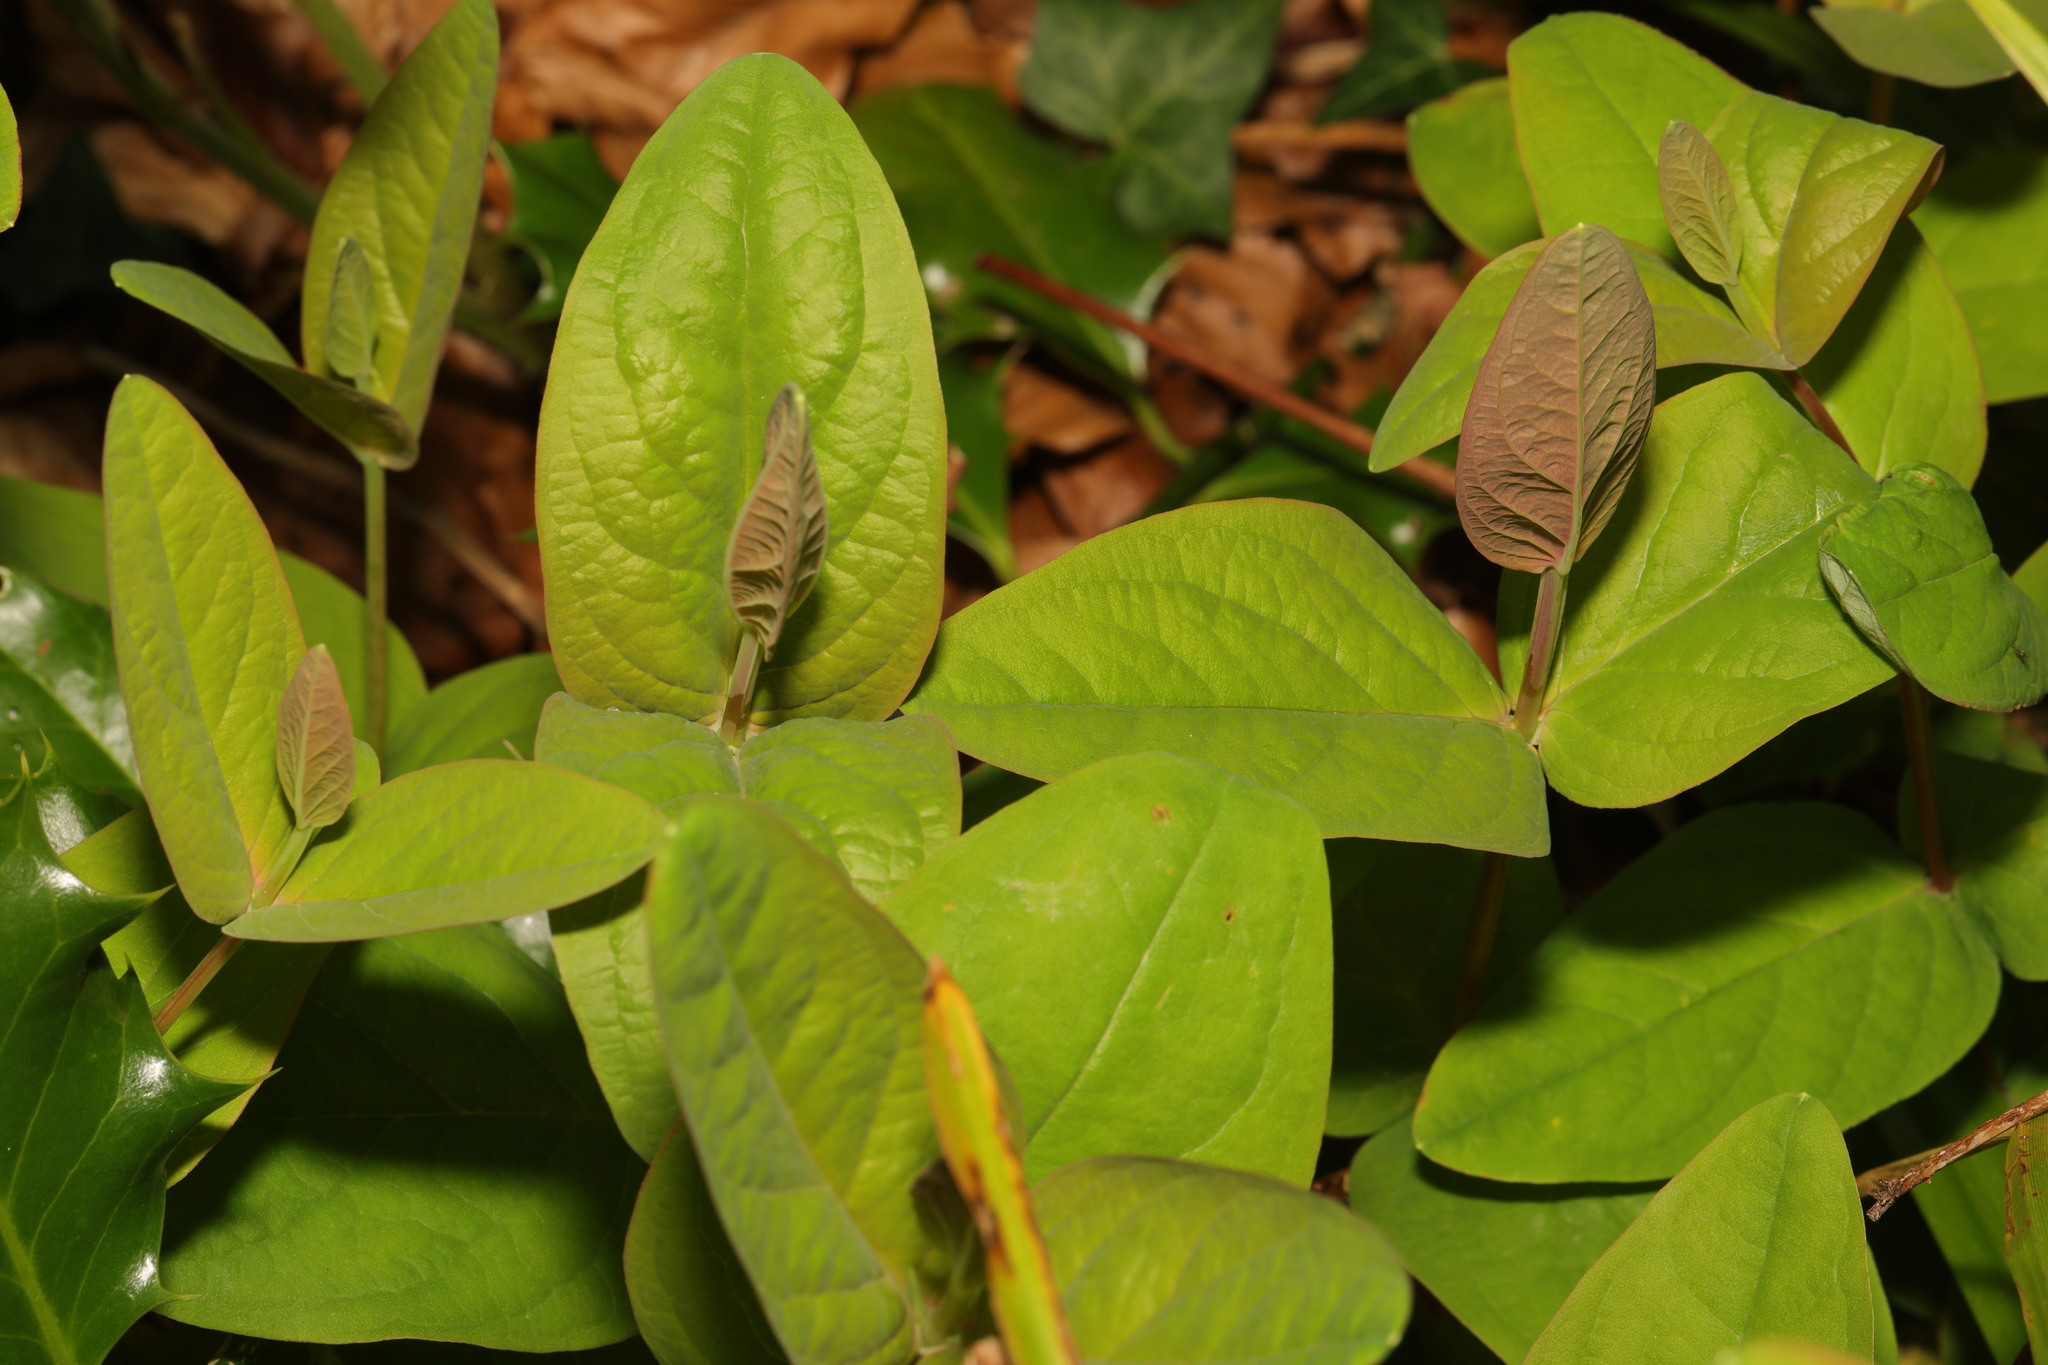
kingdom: Plantae
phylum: Tracheophyta
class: Magnoliopsida
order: Malpighiales
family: Hypericaceae
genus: Hypericum
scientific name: Hypericum androsaemum
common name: Sweet-amber
